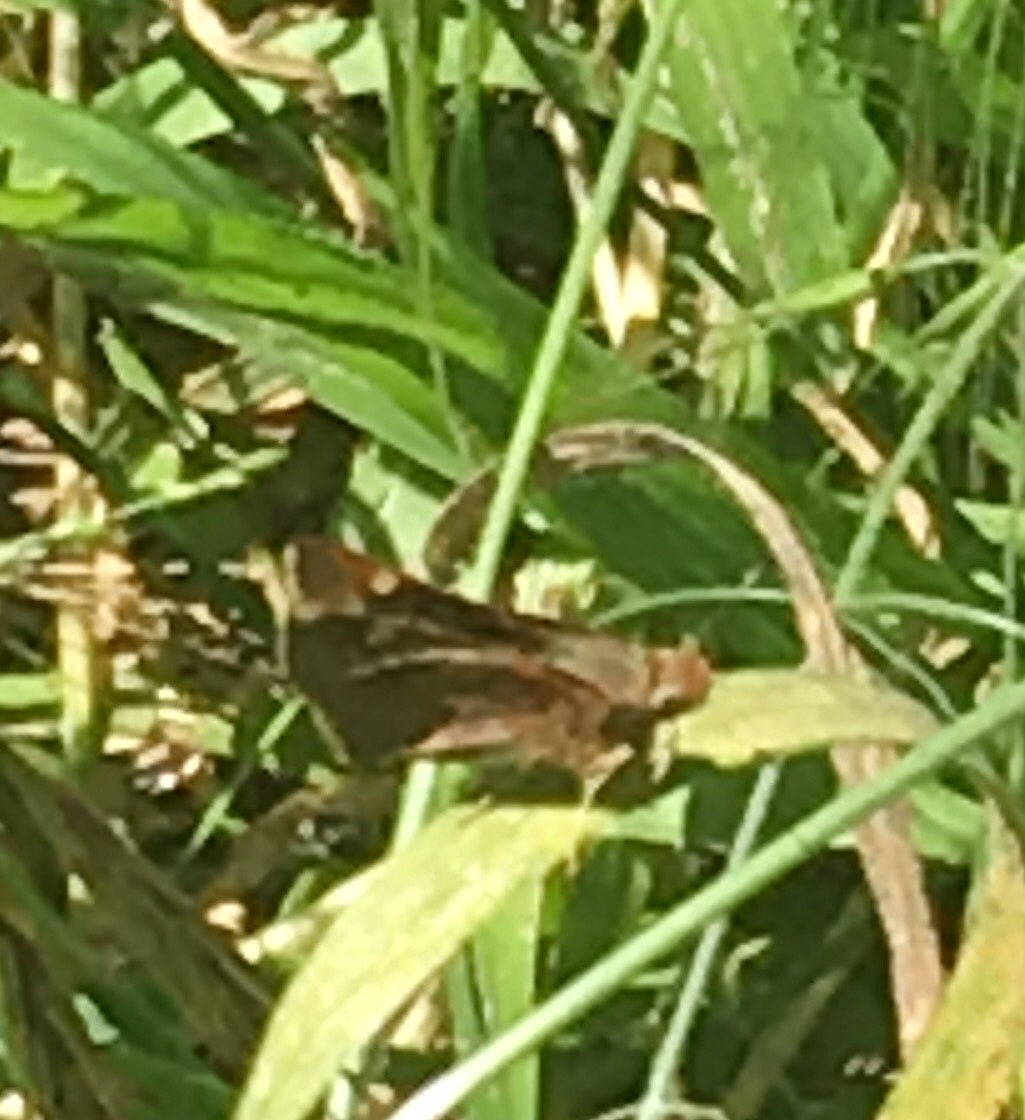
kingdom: Animalia
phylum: Arthropoda
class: Insecta
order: Lepidoptera
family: Hesperiidae
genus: Lon
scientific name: Lon melane
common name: Umber skipper
